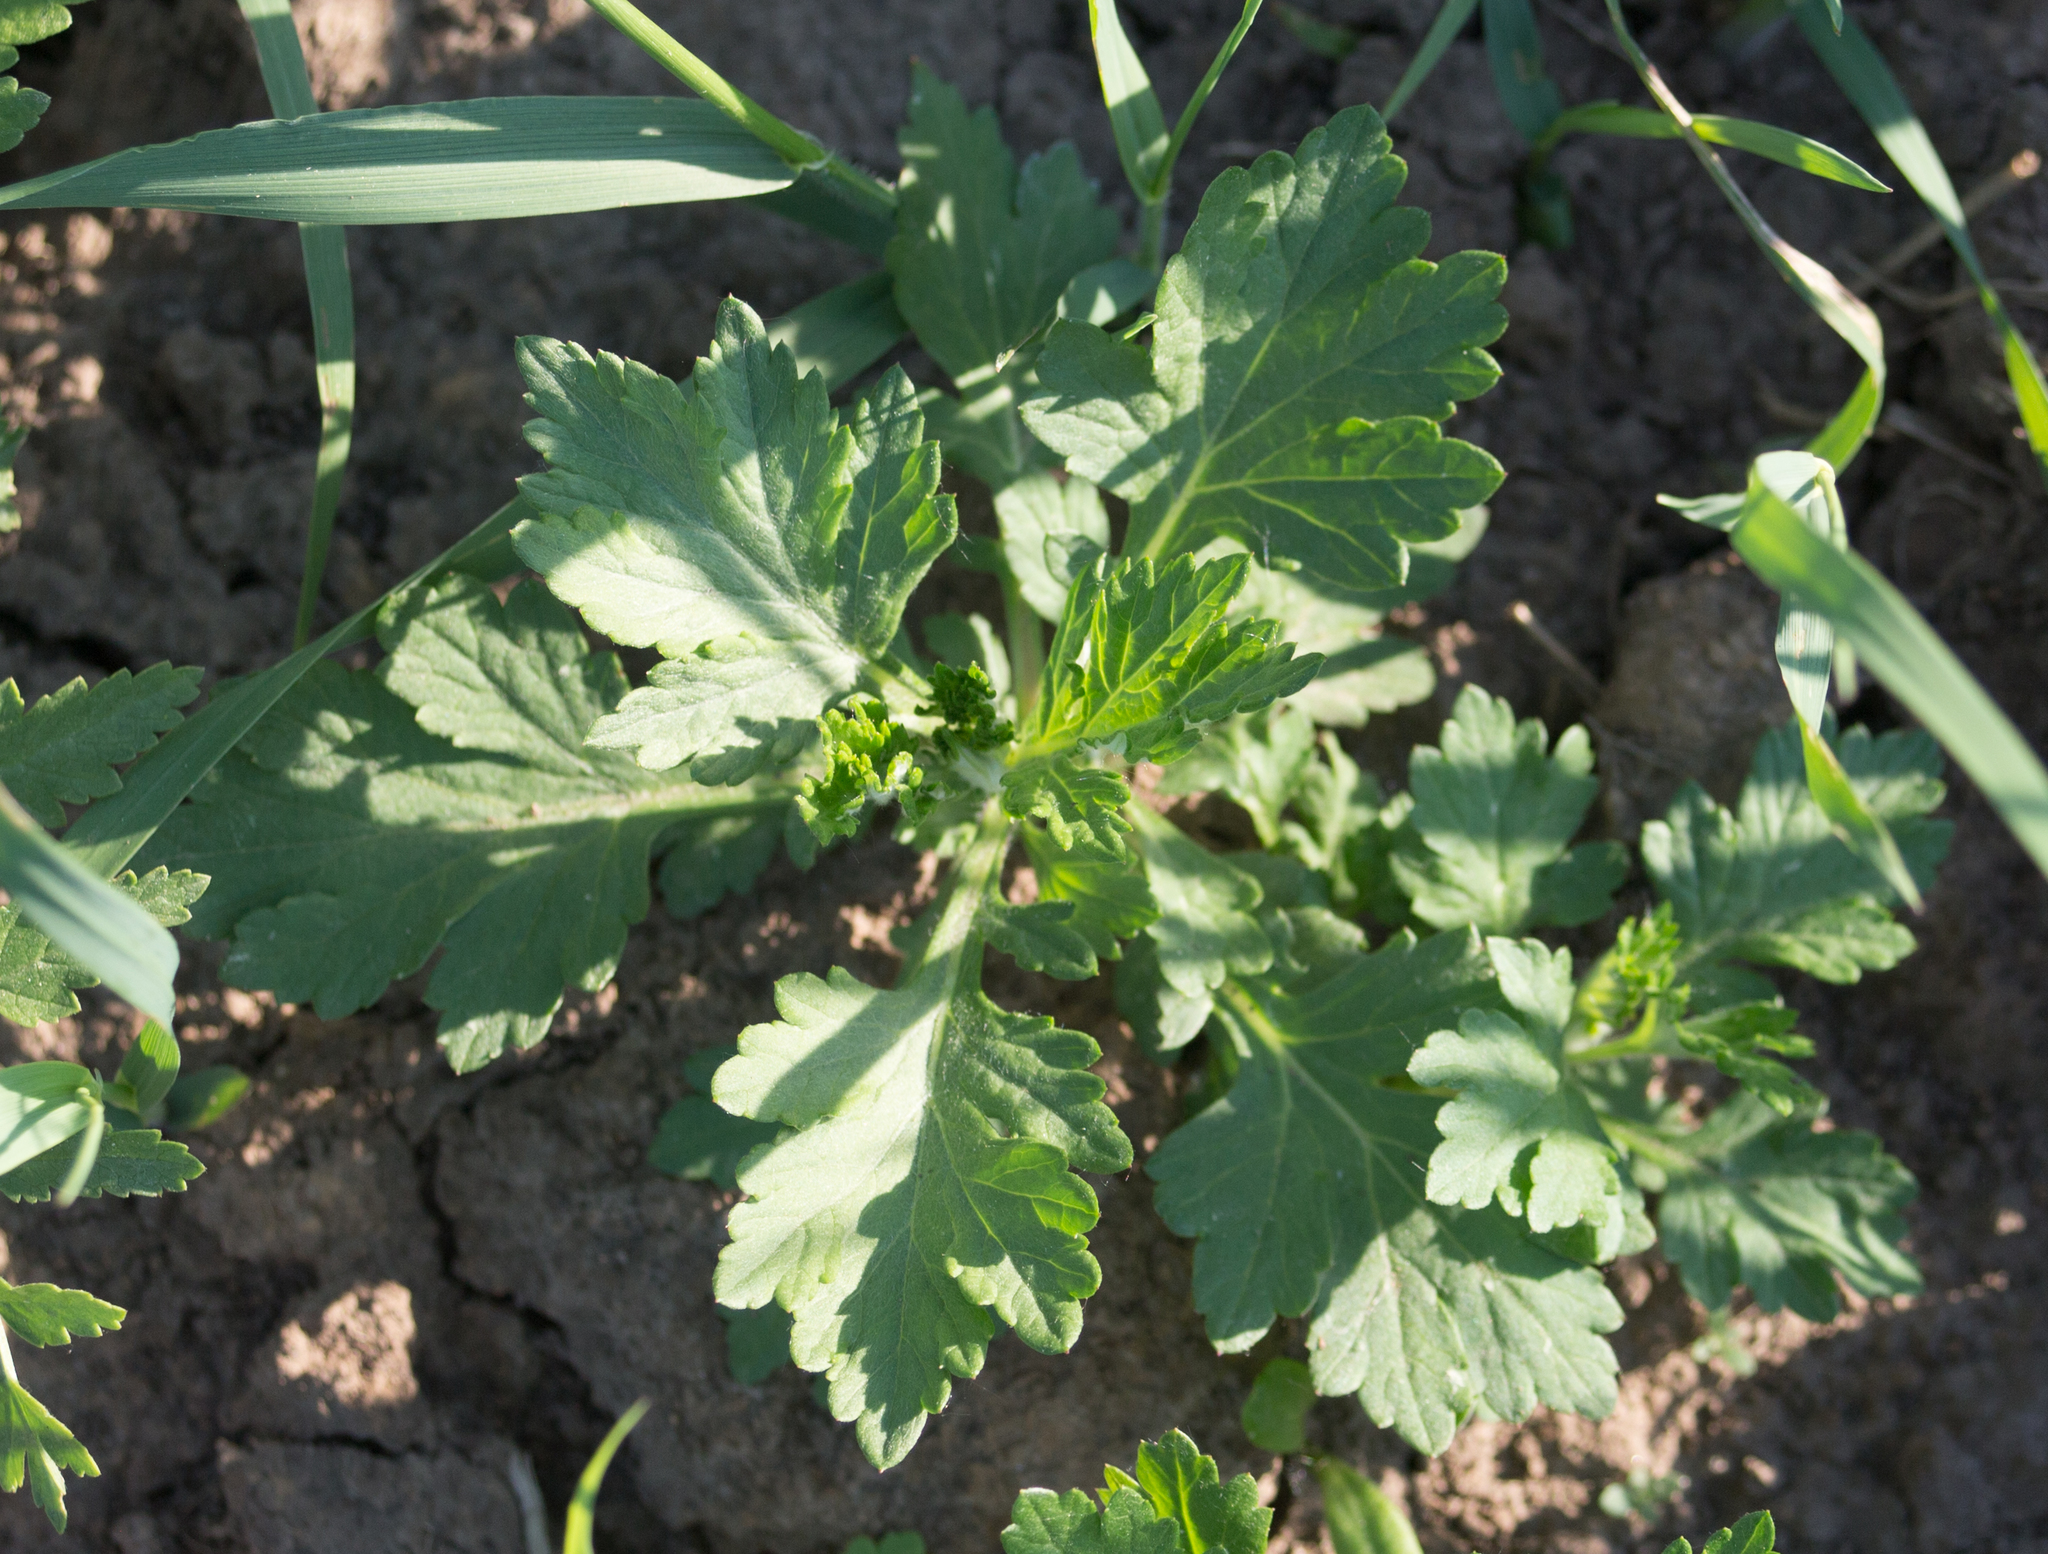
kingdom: Plantae
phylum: Tracheophyta
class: Magnoliopsida
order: Asterales
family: Asteraceae
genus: Artemisia
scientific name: Artemisia vulgaris
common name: Mugwort
